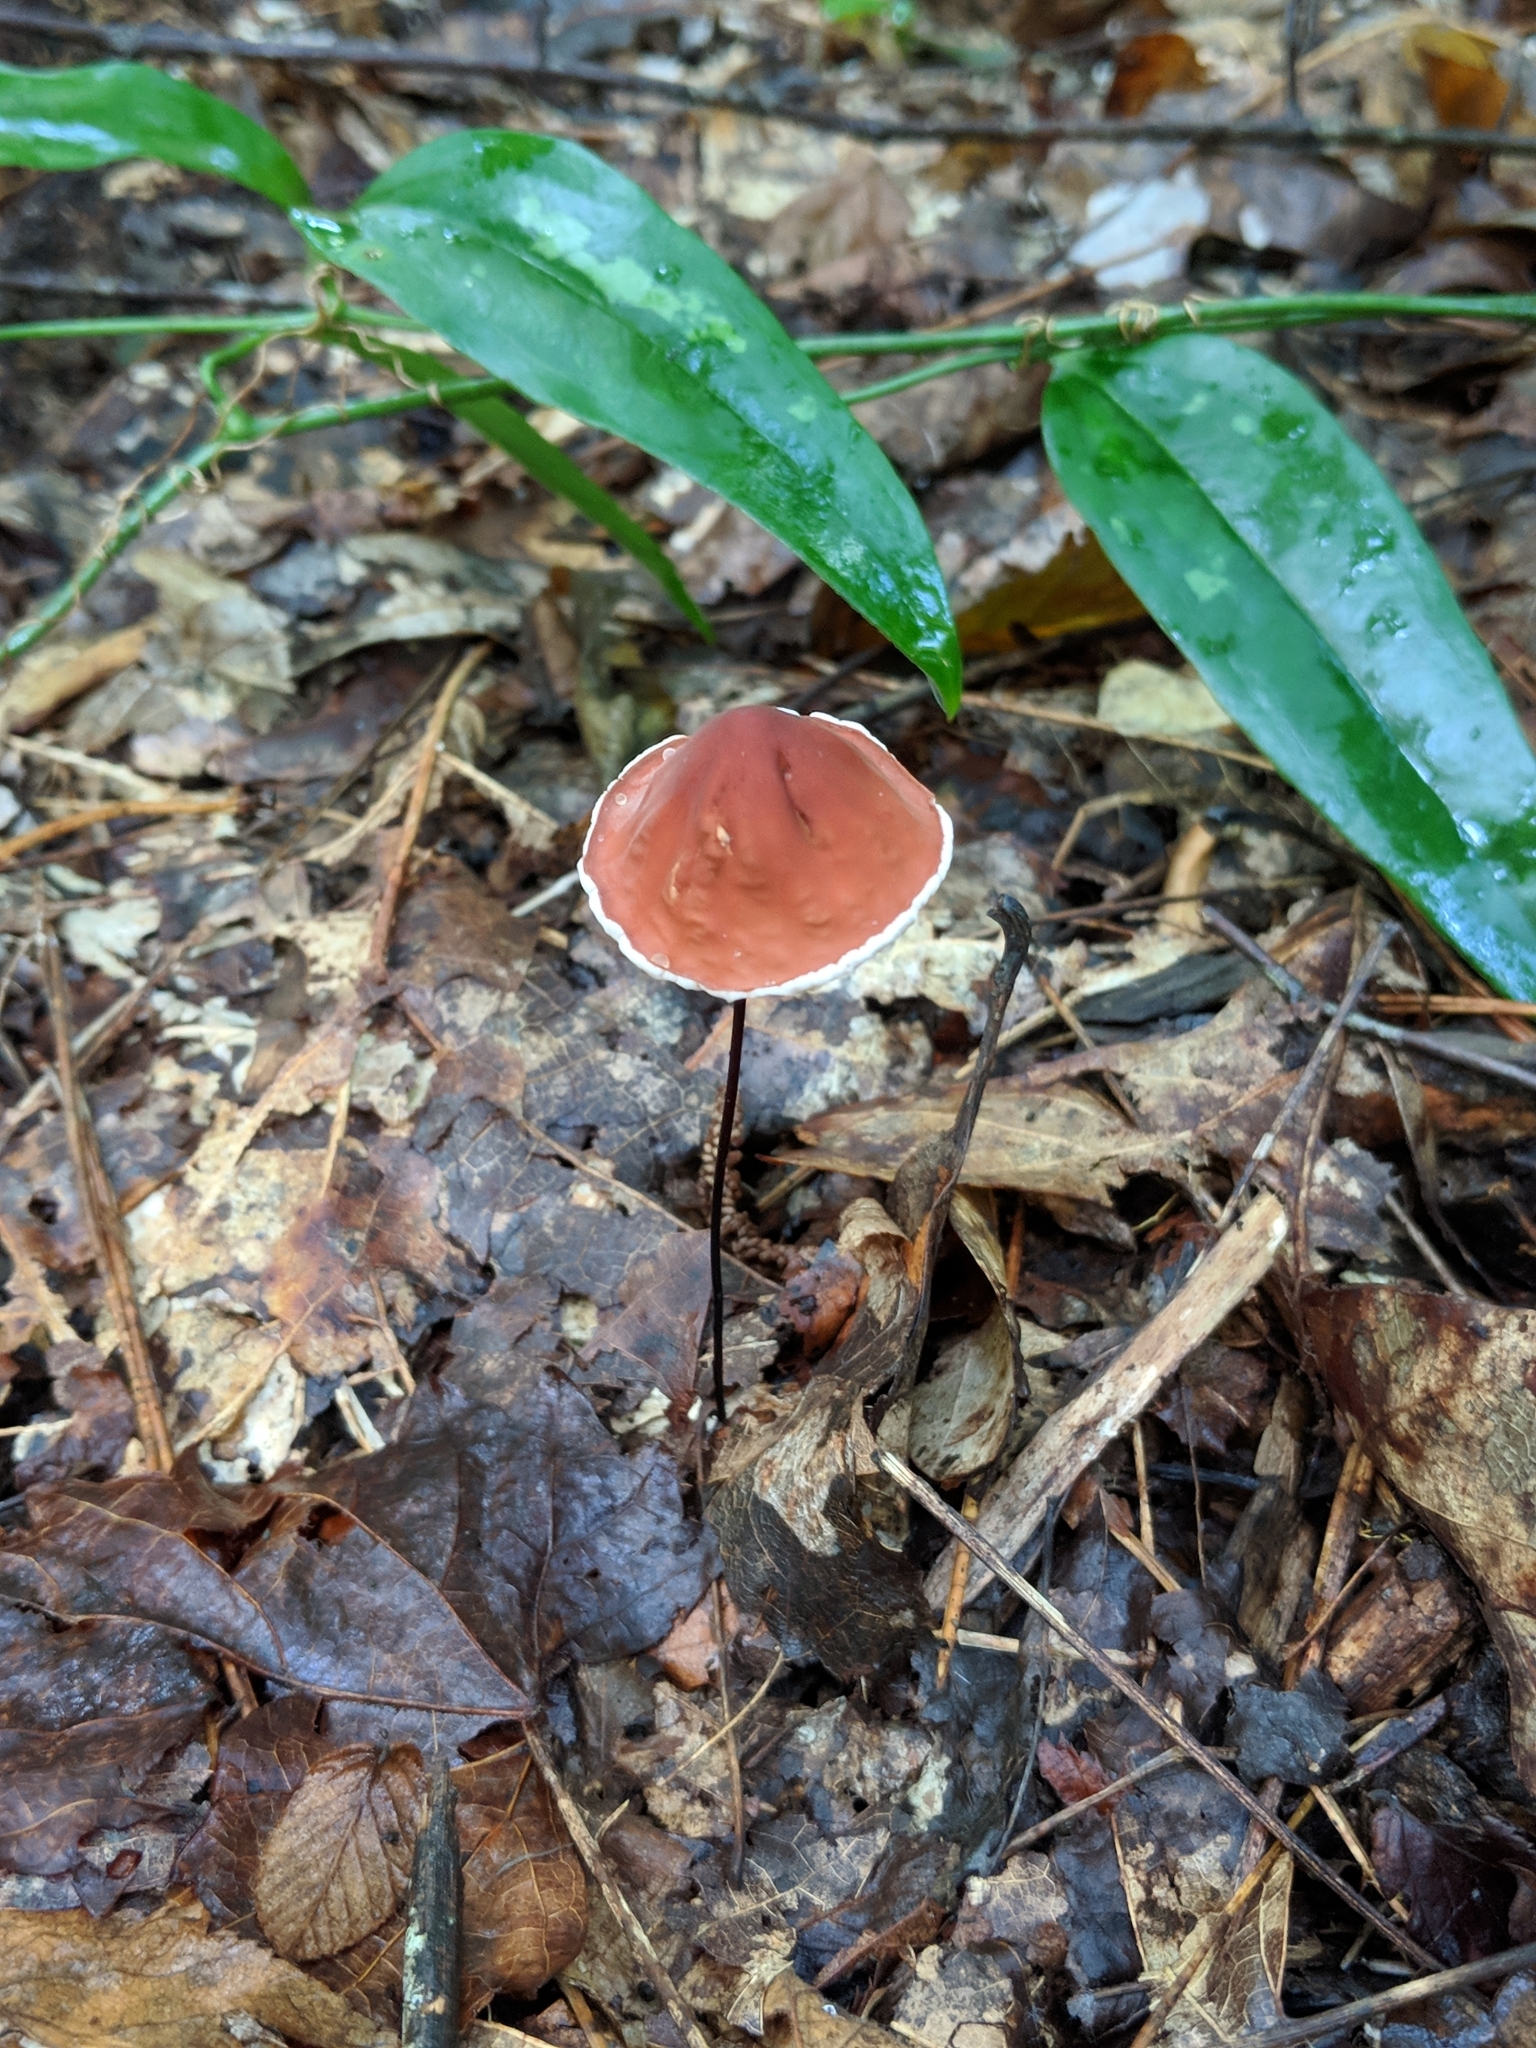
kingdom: Fungi
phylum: Basidiomycota
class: Agaricomycetes
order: Agaricales
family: Marasmiaceae
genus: Marasmius
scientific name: Marasmius plicatulus
